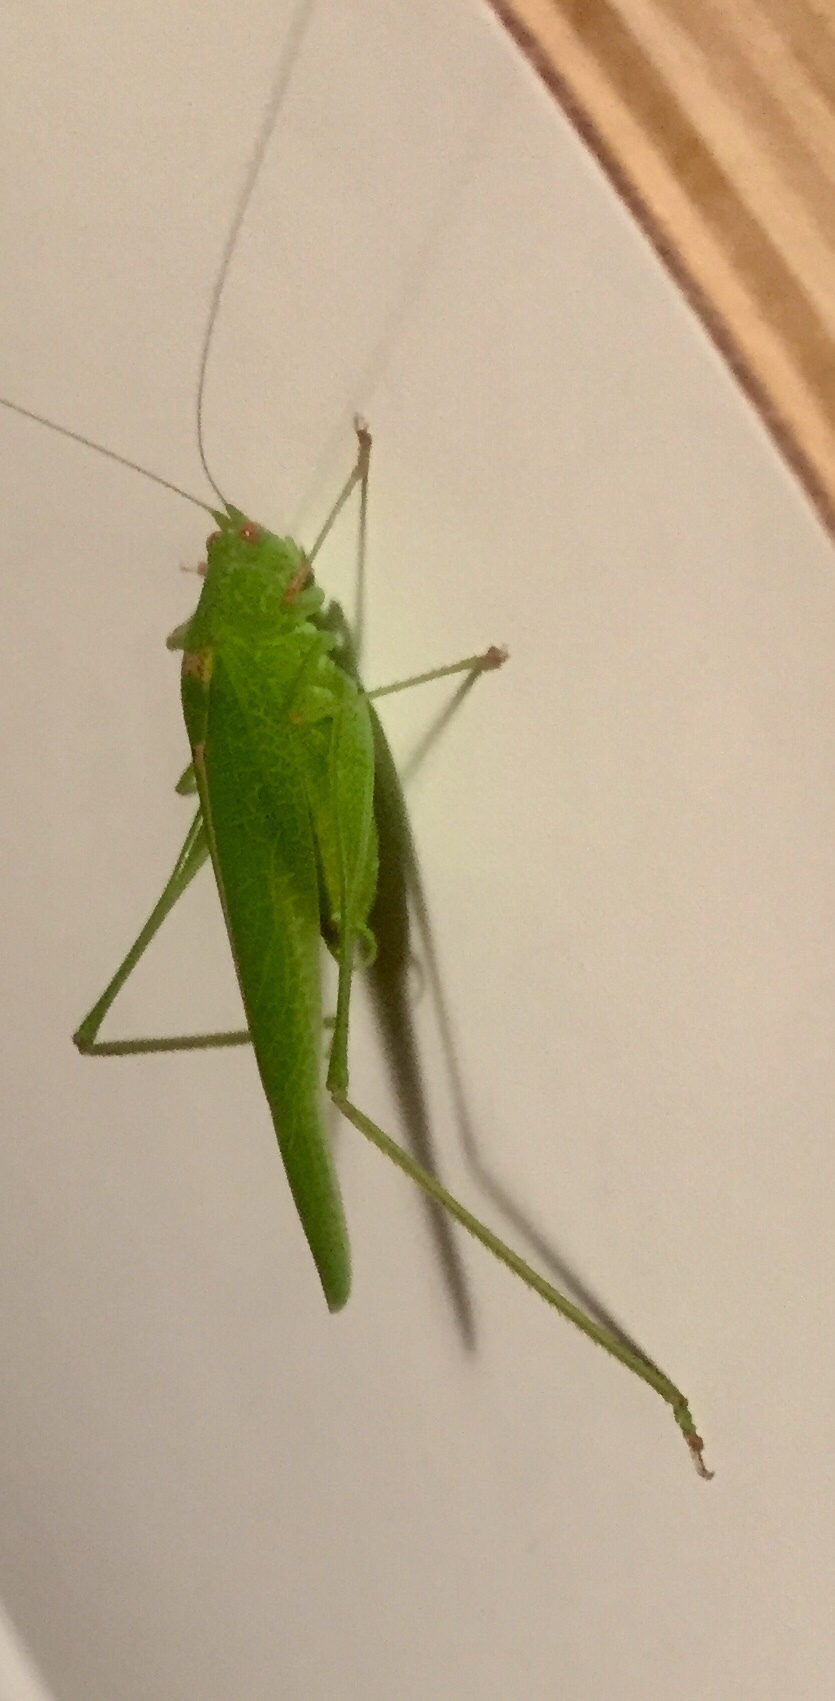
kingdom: Animalia
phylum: Arthropoda
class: Insecta
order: Orthoptera
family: Tettigoniidae
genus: Phaneroptera
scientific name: Phaneroptera nana
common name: Southern sickle bush-cricket
